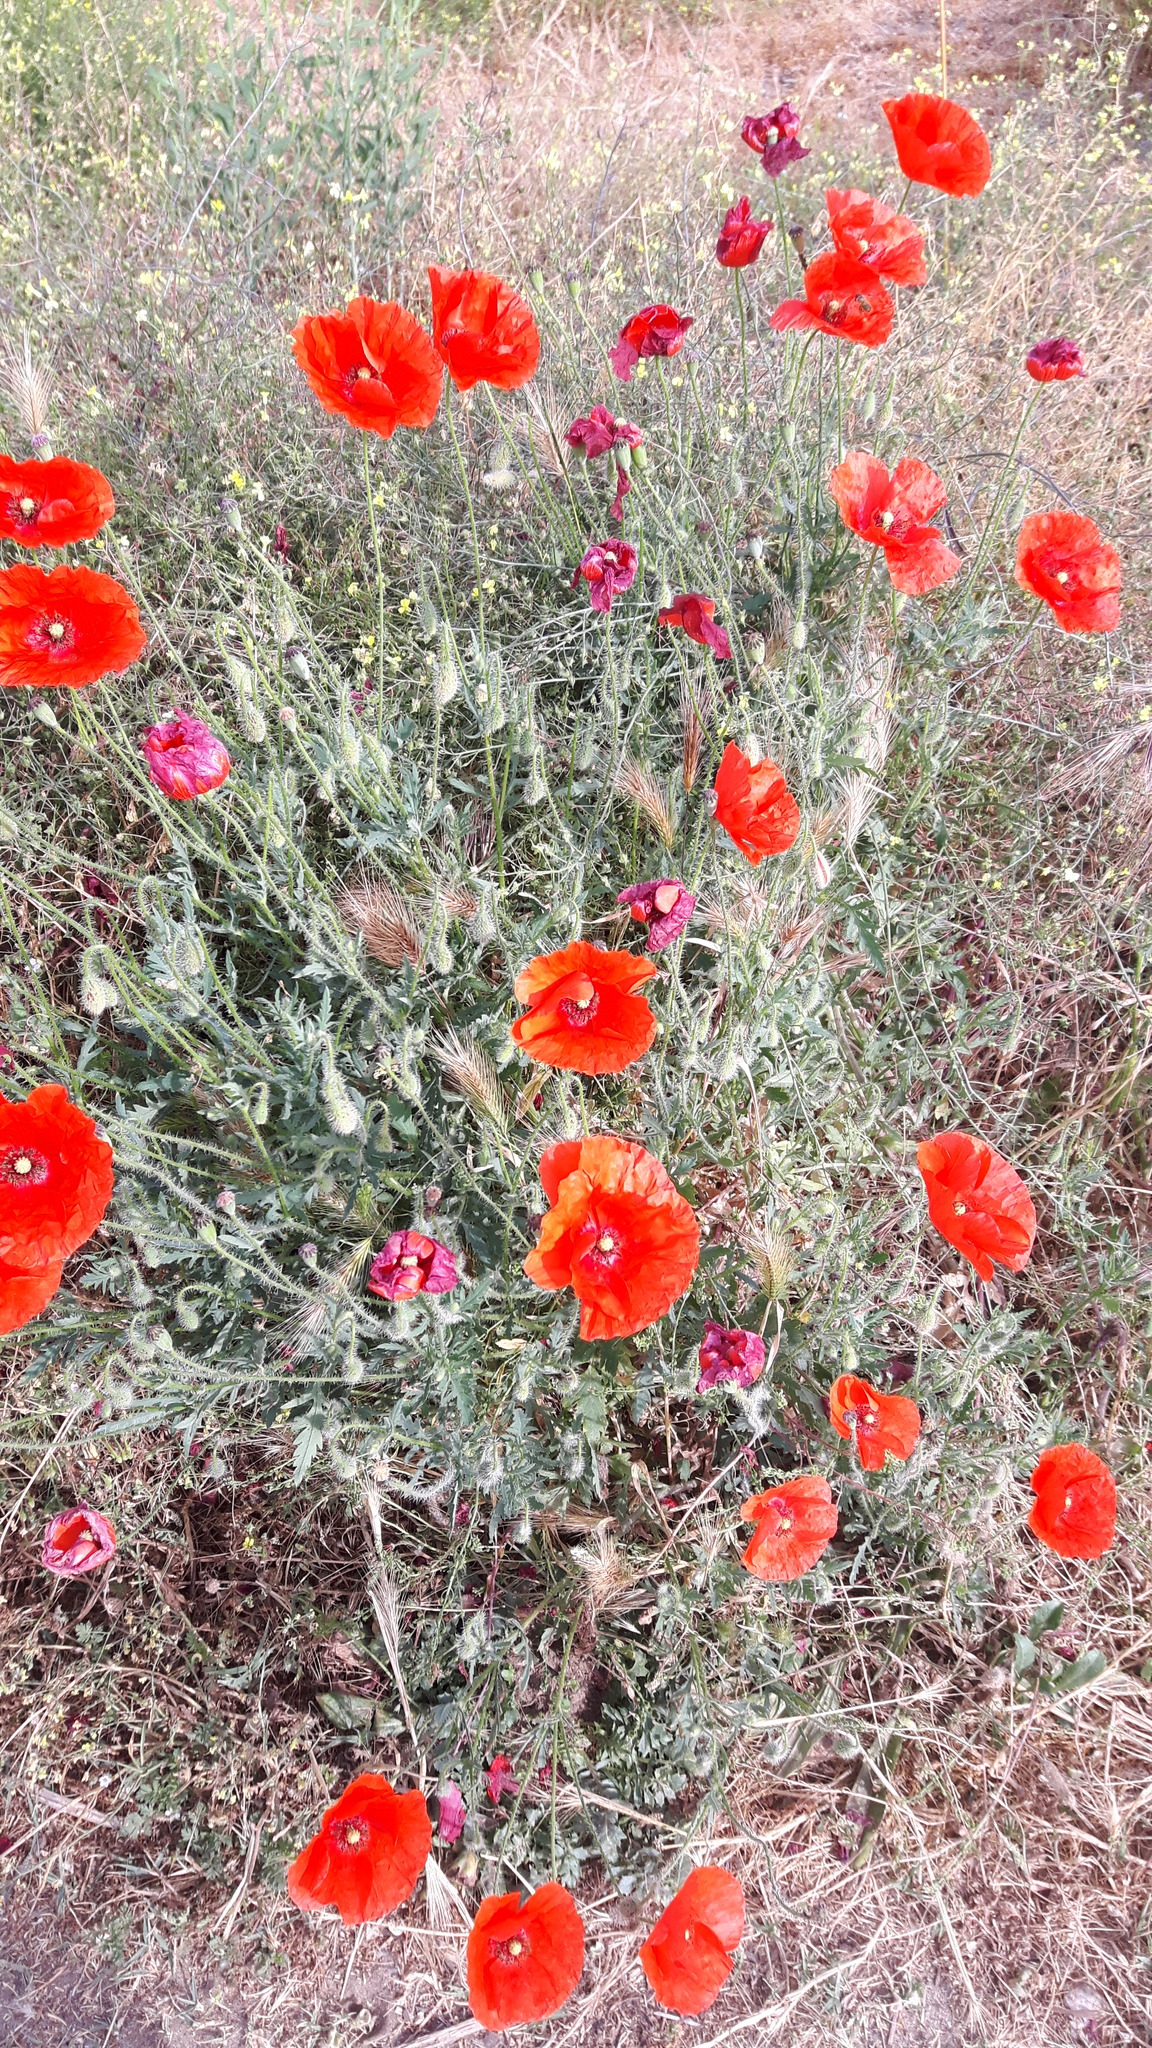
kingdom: Plantae
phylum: Tracheophyta
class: Magnoliopsida
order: Ranunculales
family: Papaveraceae
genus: Papaver
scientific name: Papaver rhoeas
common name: Corn poppy
